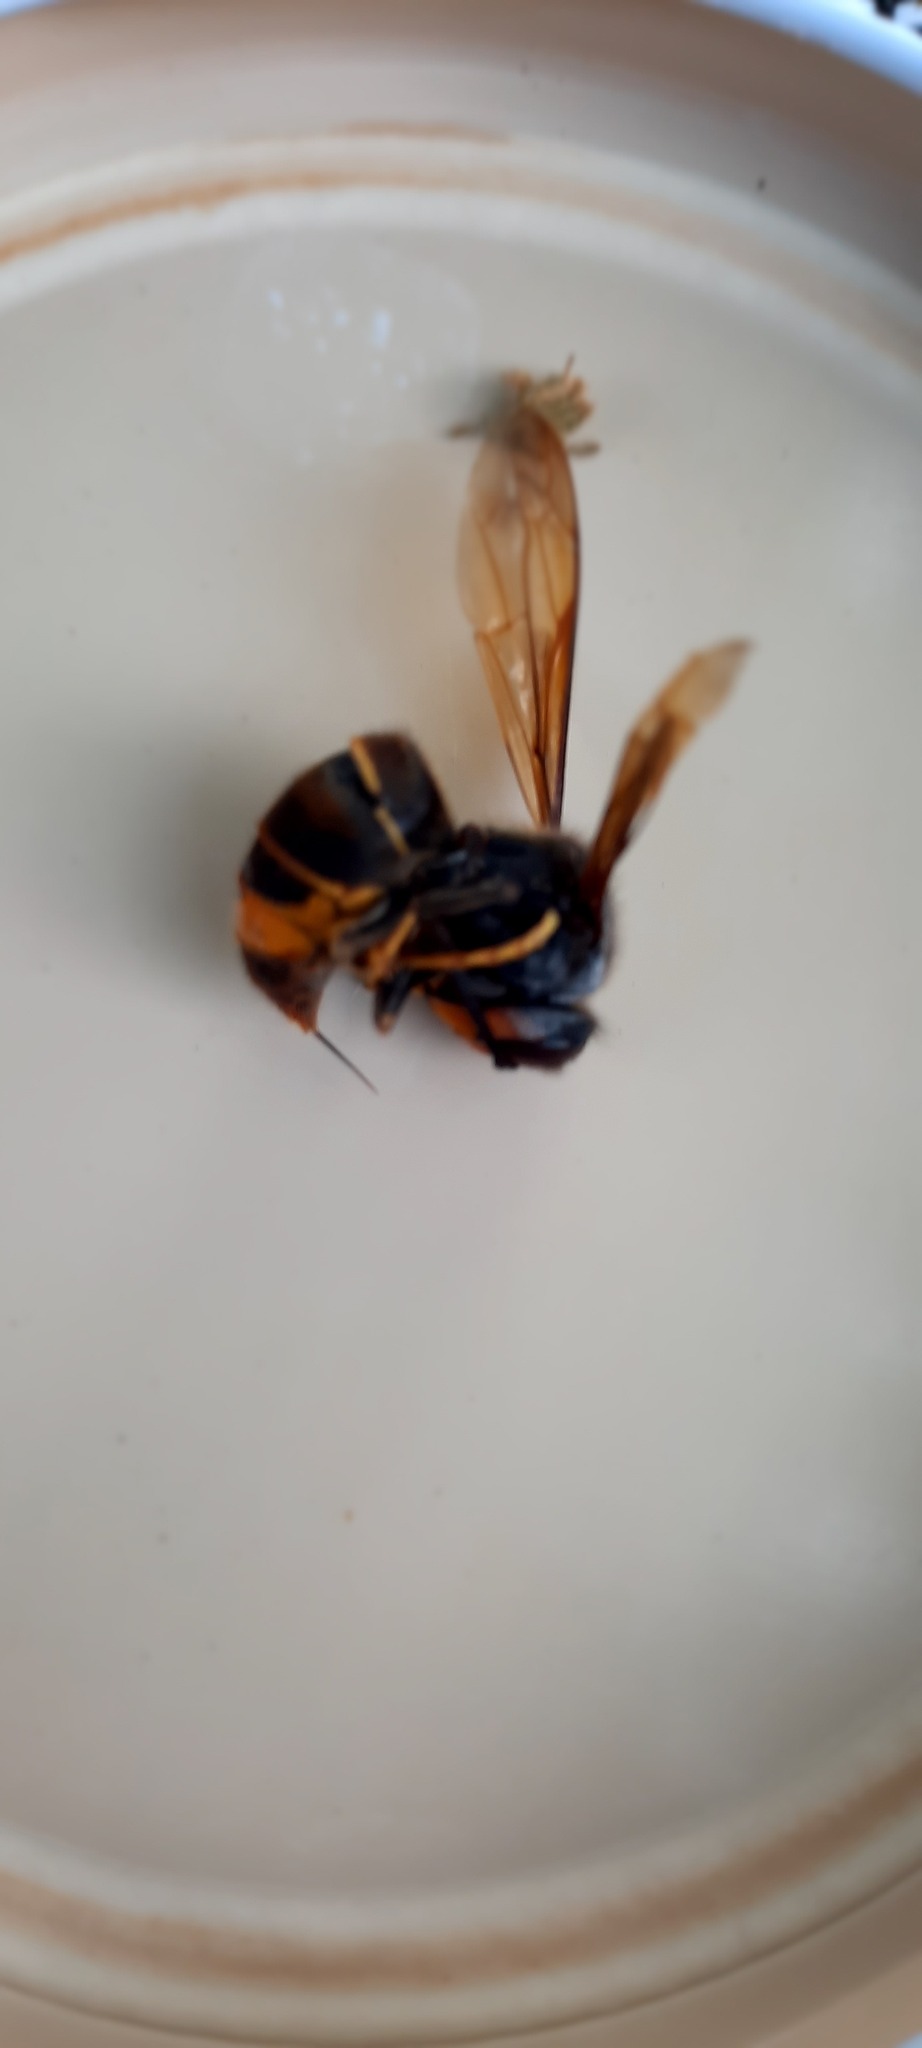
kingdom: Animalia
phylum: Arthropoda
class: Insecta
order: Hymenoptera
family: Vespidae
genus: Vespa
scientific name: Vespa velutina
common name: Asian hornet
